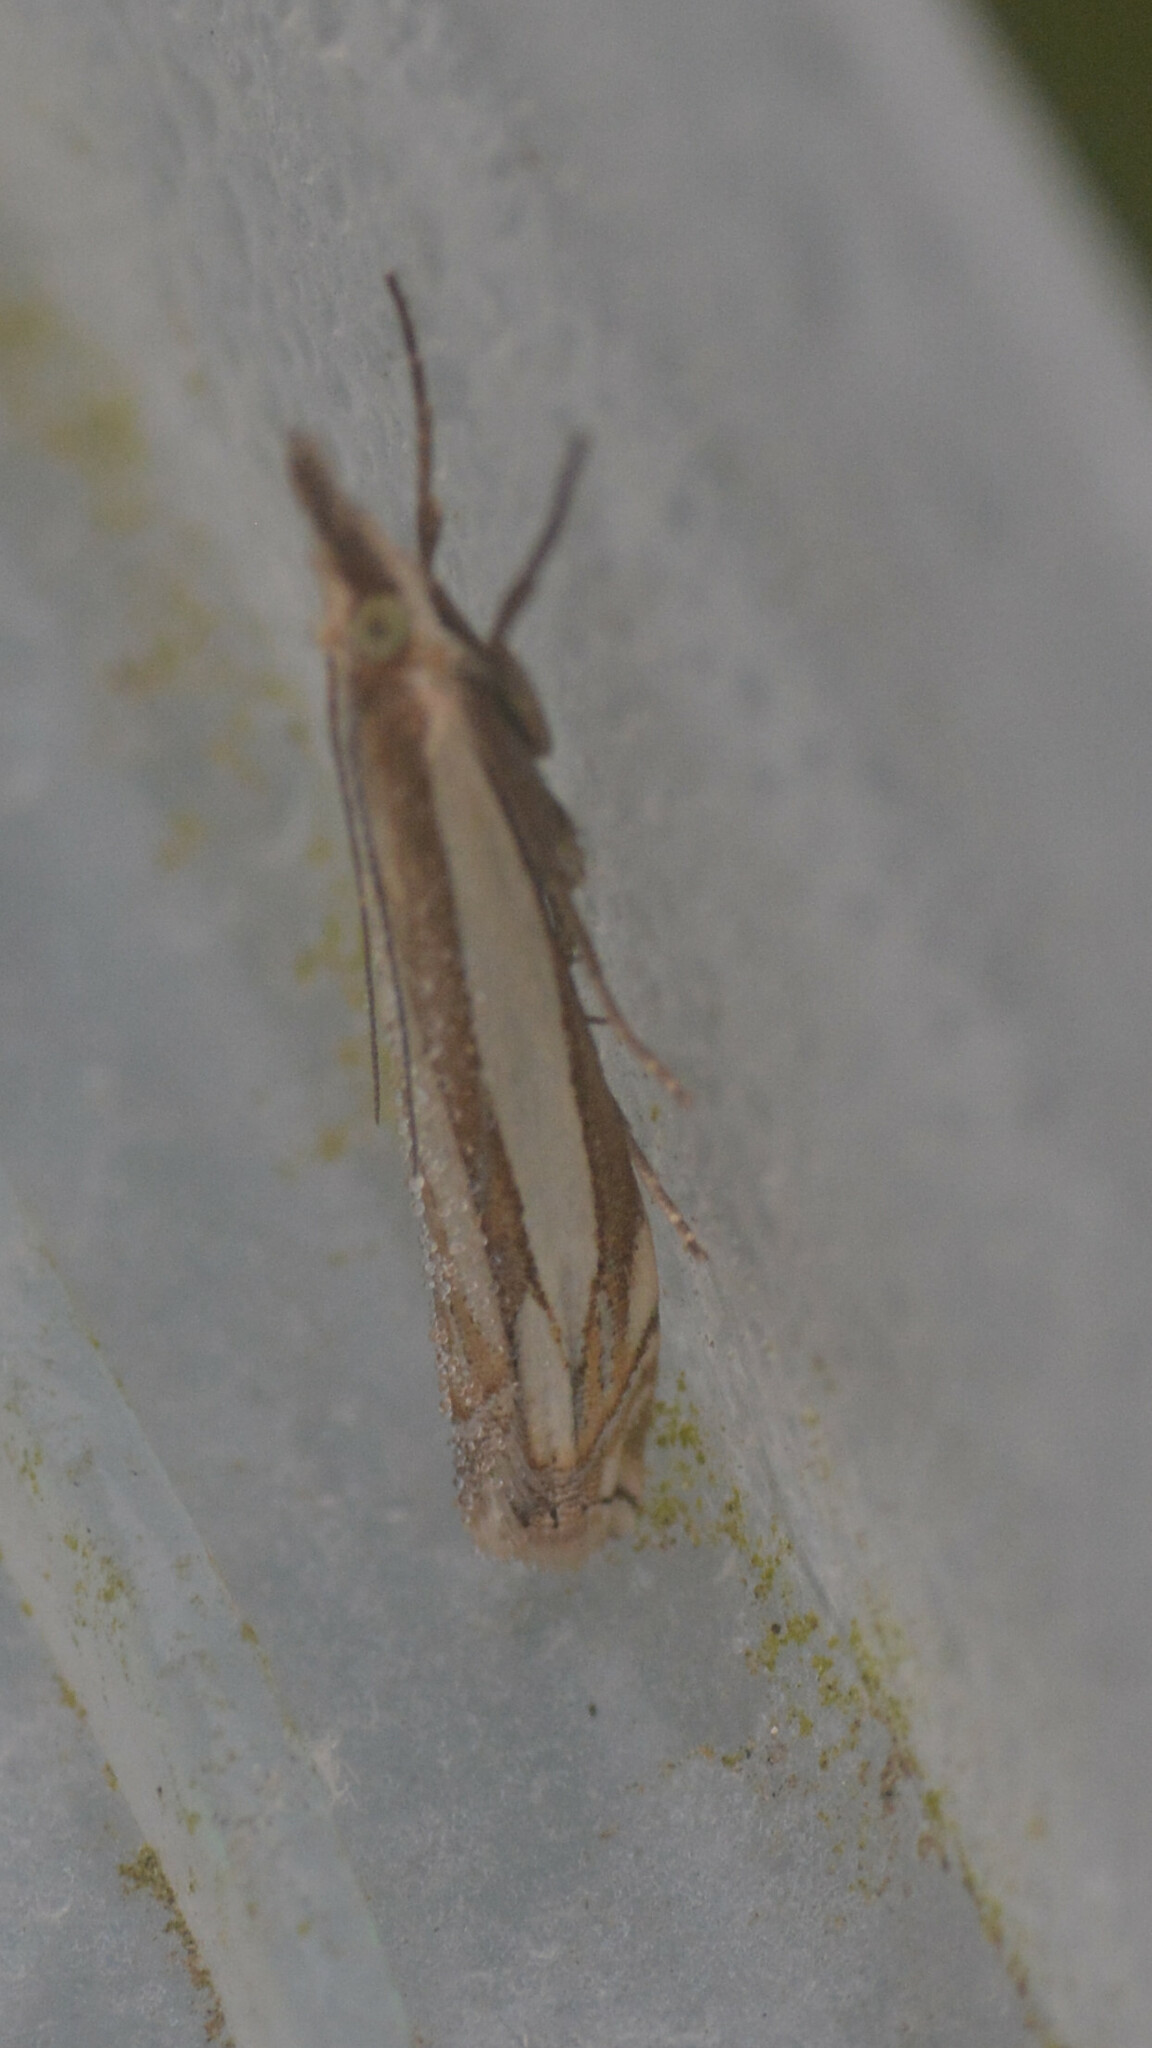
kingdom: Animalia
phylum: Arthropoda
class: Insecta
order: Lepidoptera
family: Crambidae
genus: Crambus
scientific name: Crambus pascuella
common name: Inlaid grass-veneer
